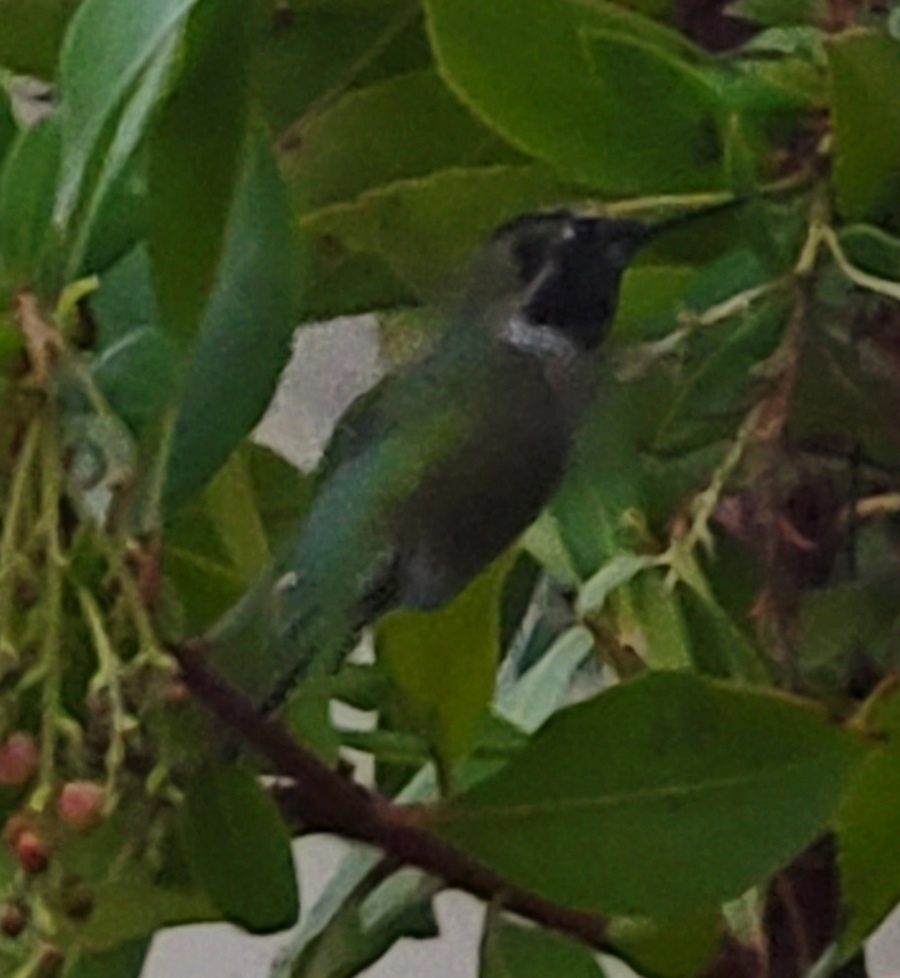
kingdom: Animalia
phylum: Chordata
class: Aves
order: Apodiformes
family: Trochilidae
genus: Calypte
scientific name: Calypte anna
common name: Anna's hummingbird
